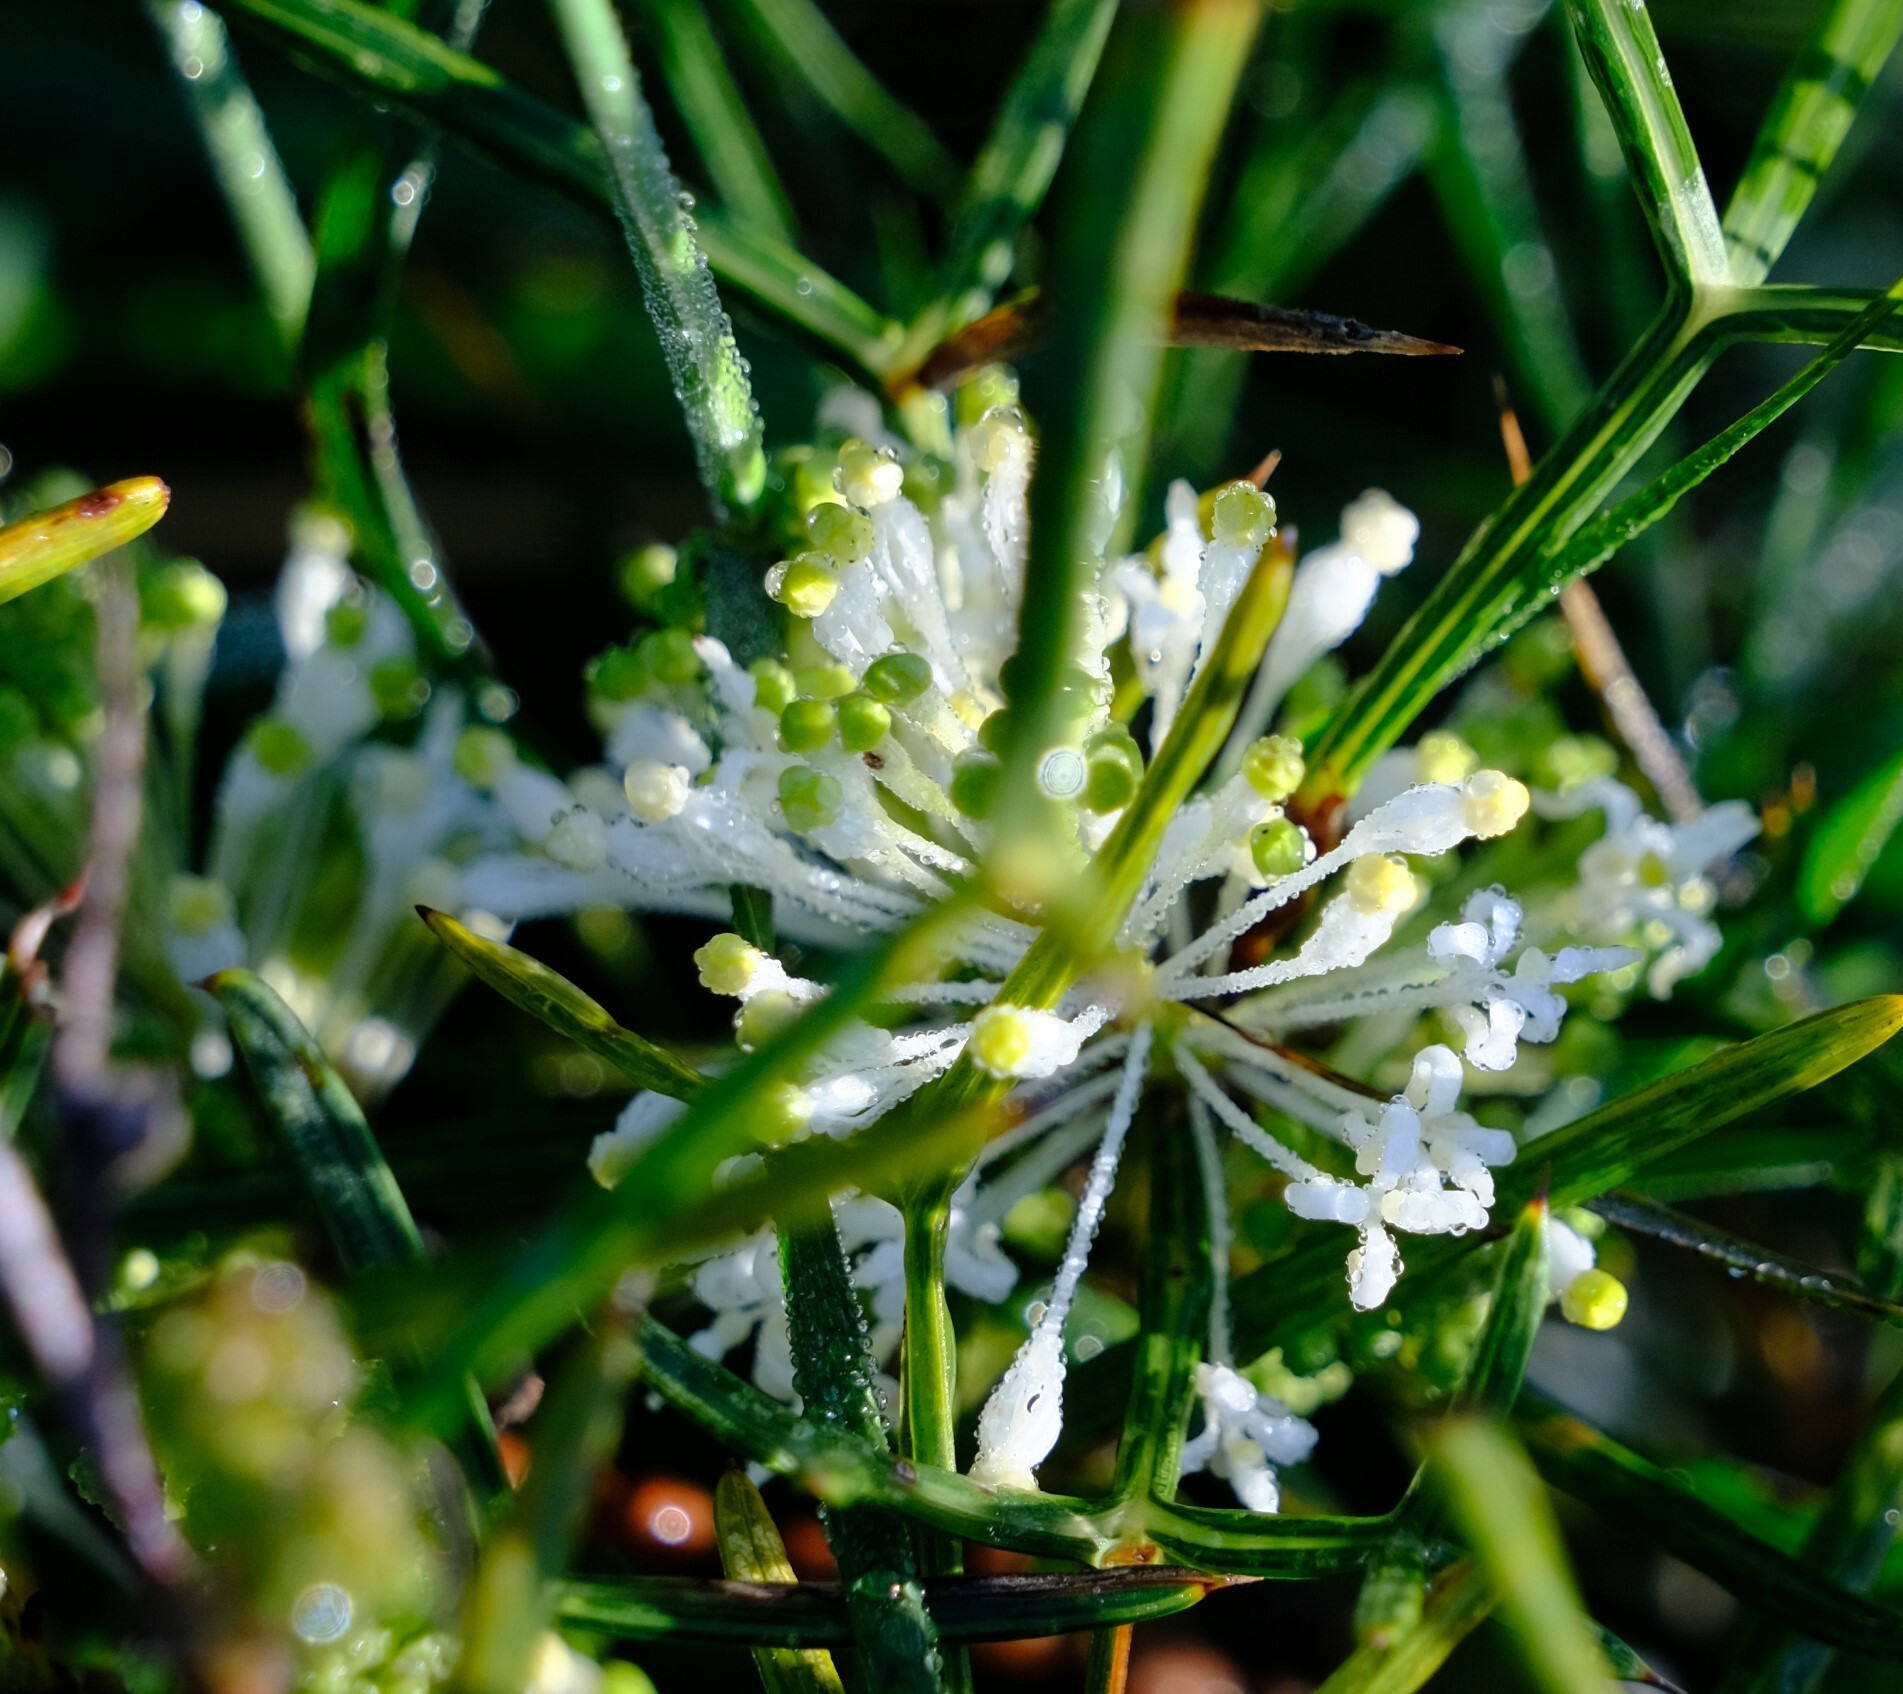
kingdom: Plantae
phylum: Tracheophyta
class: Magnoliopsida
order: Proteales
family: Proteaceae
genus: Grevillea
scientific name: Grevillea biternata
